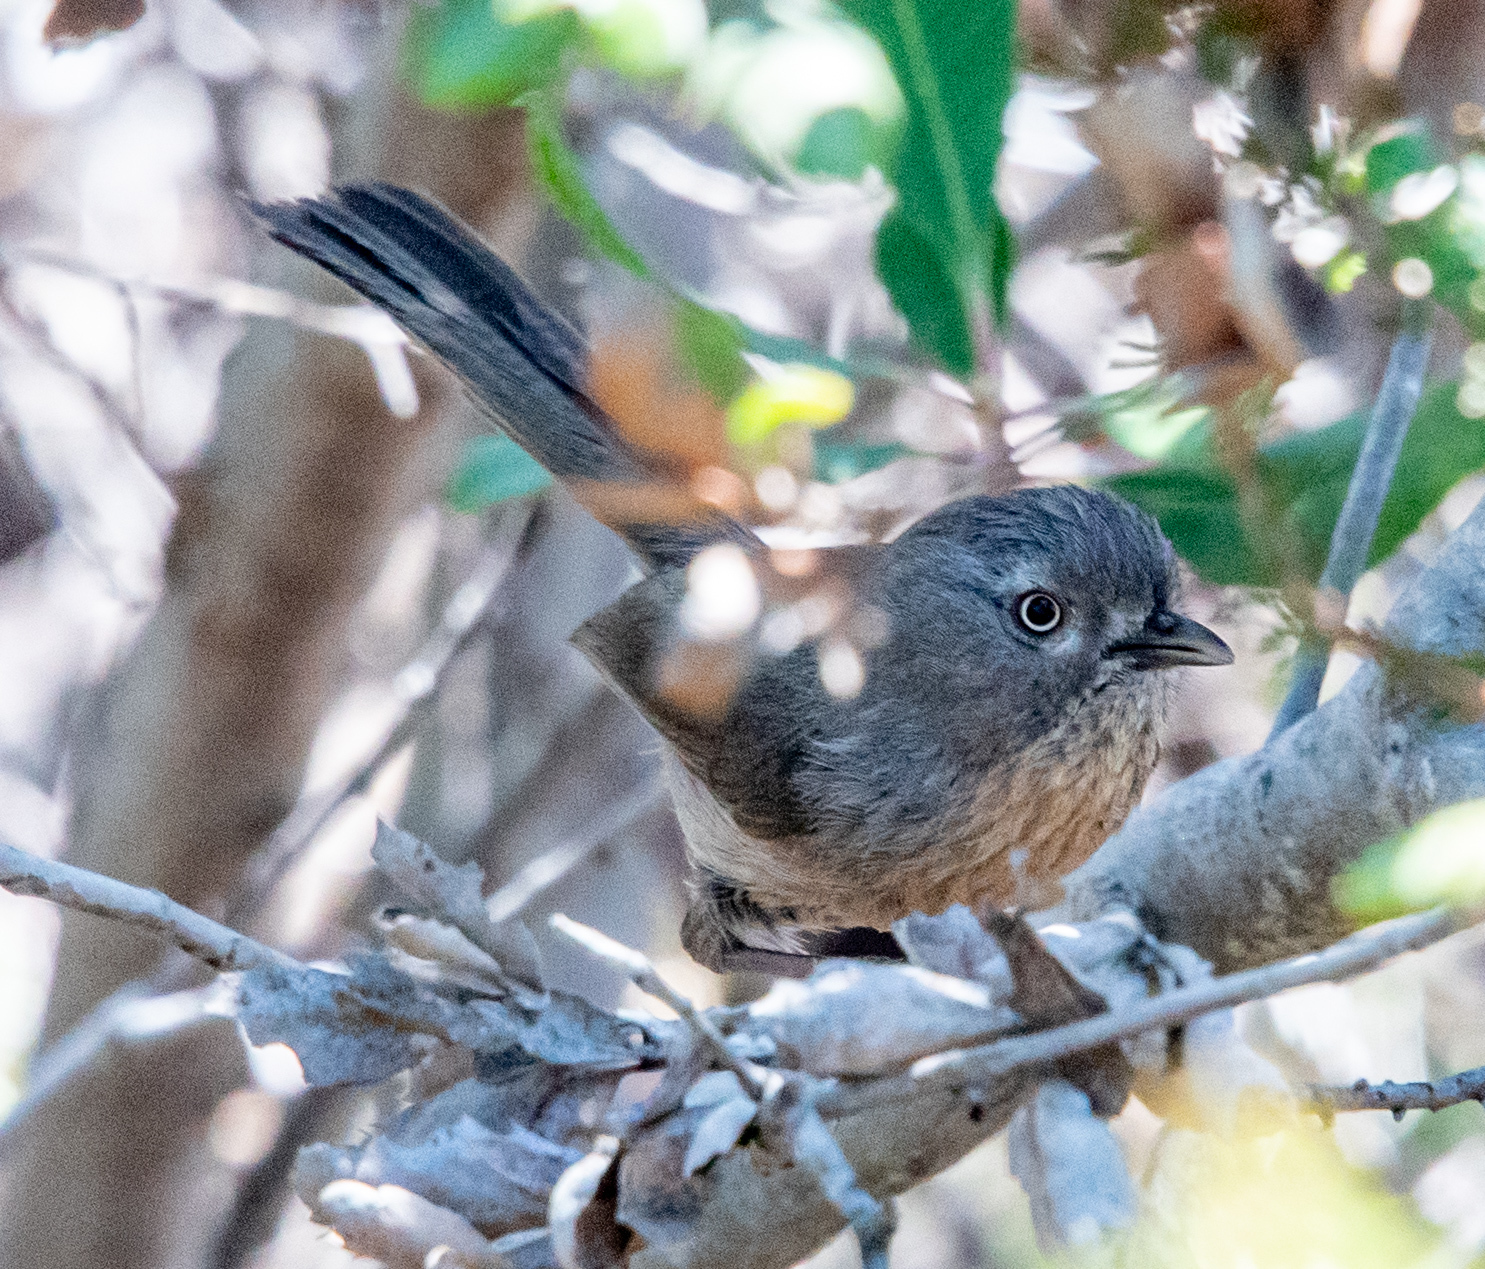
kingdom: Animalia
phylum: Chordata
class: Aves
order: Passeriformes
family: Sylviidae
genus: Chamaea
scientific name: Chamaea fasciata
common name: Wrentit
